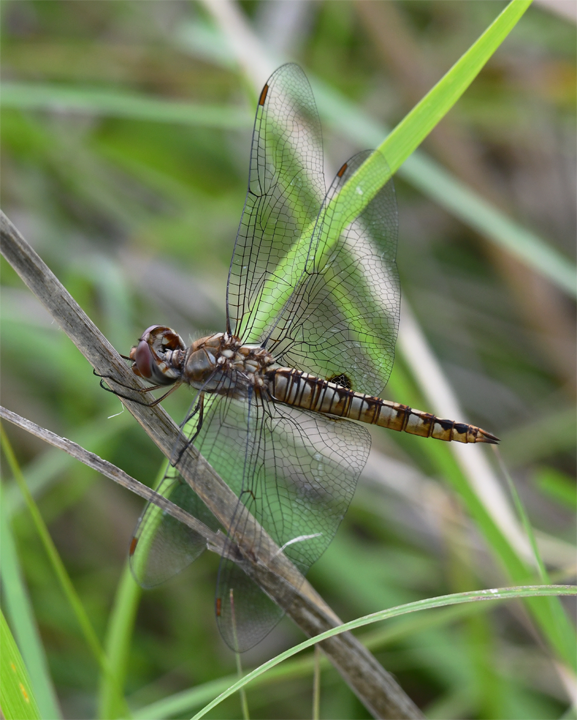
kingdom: Animalia
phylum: Arthropoda
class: Insecta
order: Odonata
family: Libellulidae
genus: Pantala
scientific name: Pantala hymenaea
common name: Spot-winged glider
